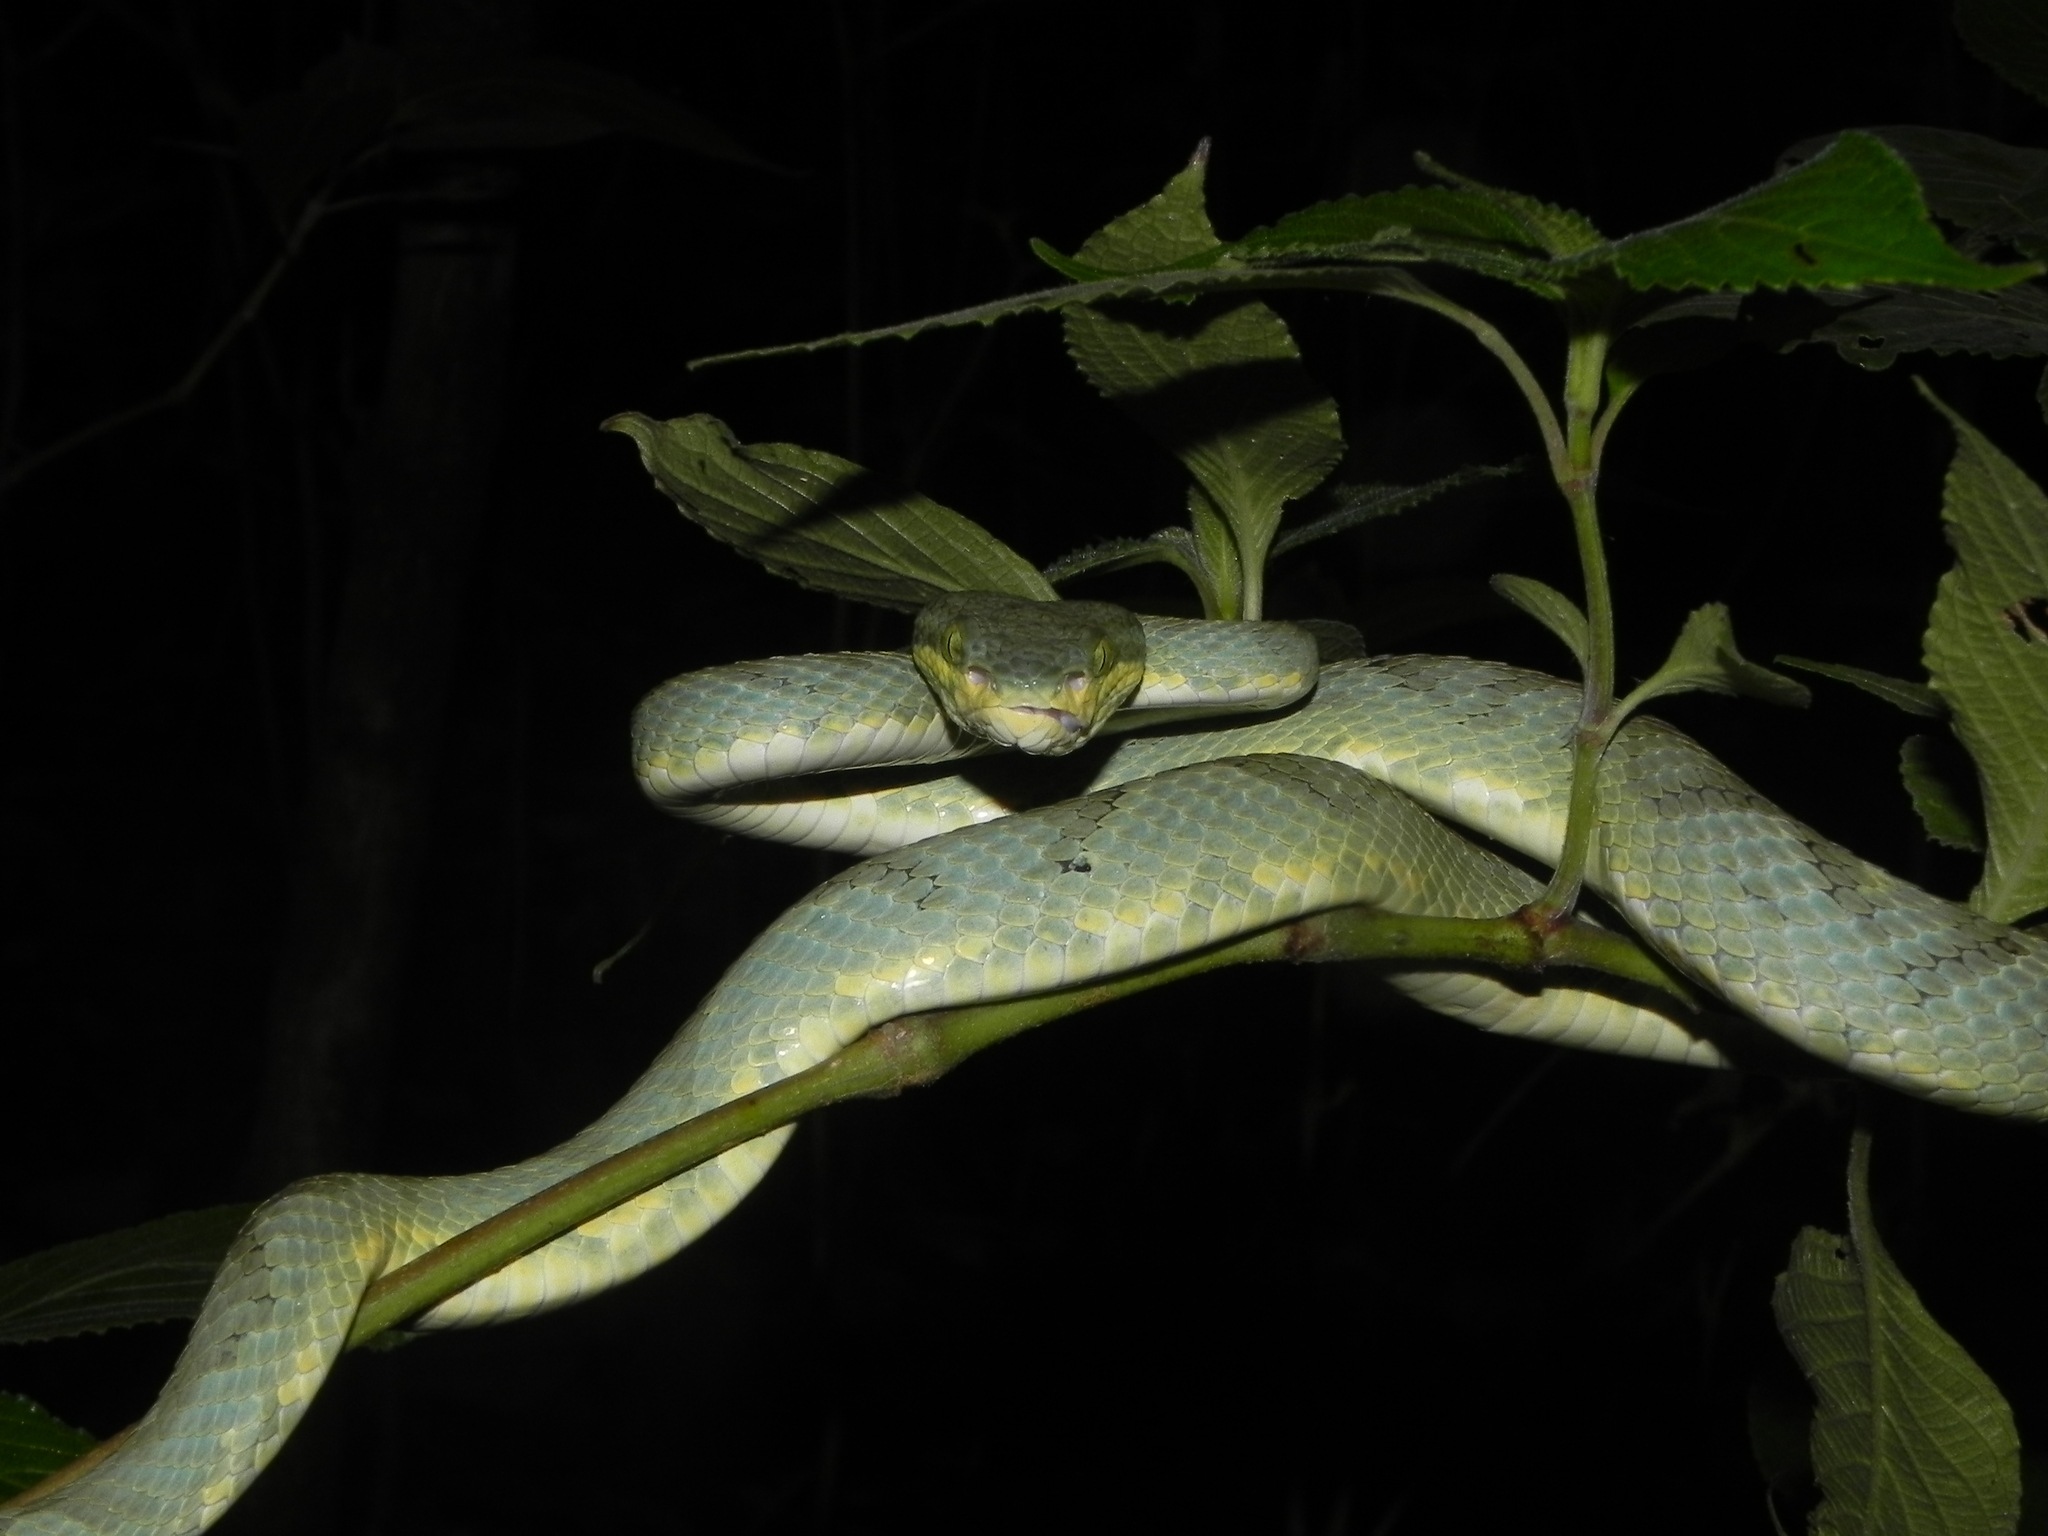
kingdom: Animalia
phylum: Chordata
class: Squamata
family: Viperidae
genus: Craspedocephalus
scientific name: Craspedocephalus gramineus
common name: Common bamboo viper
